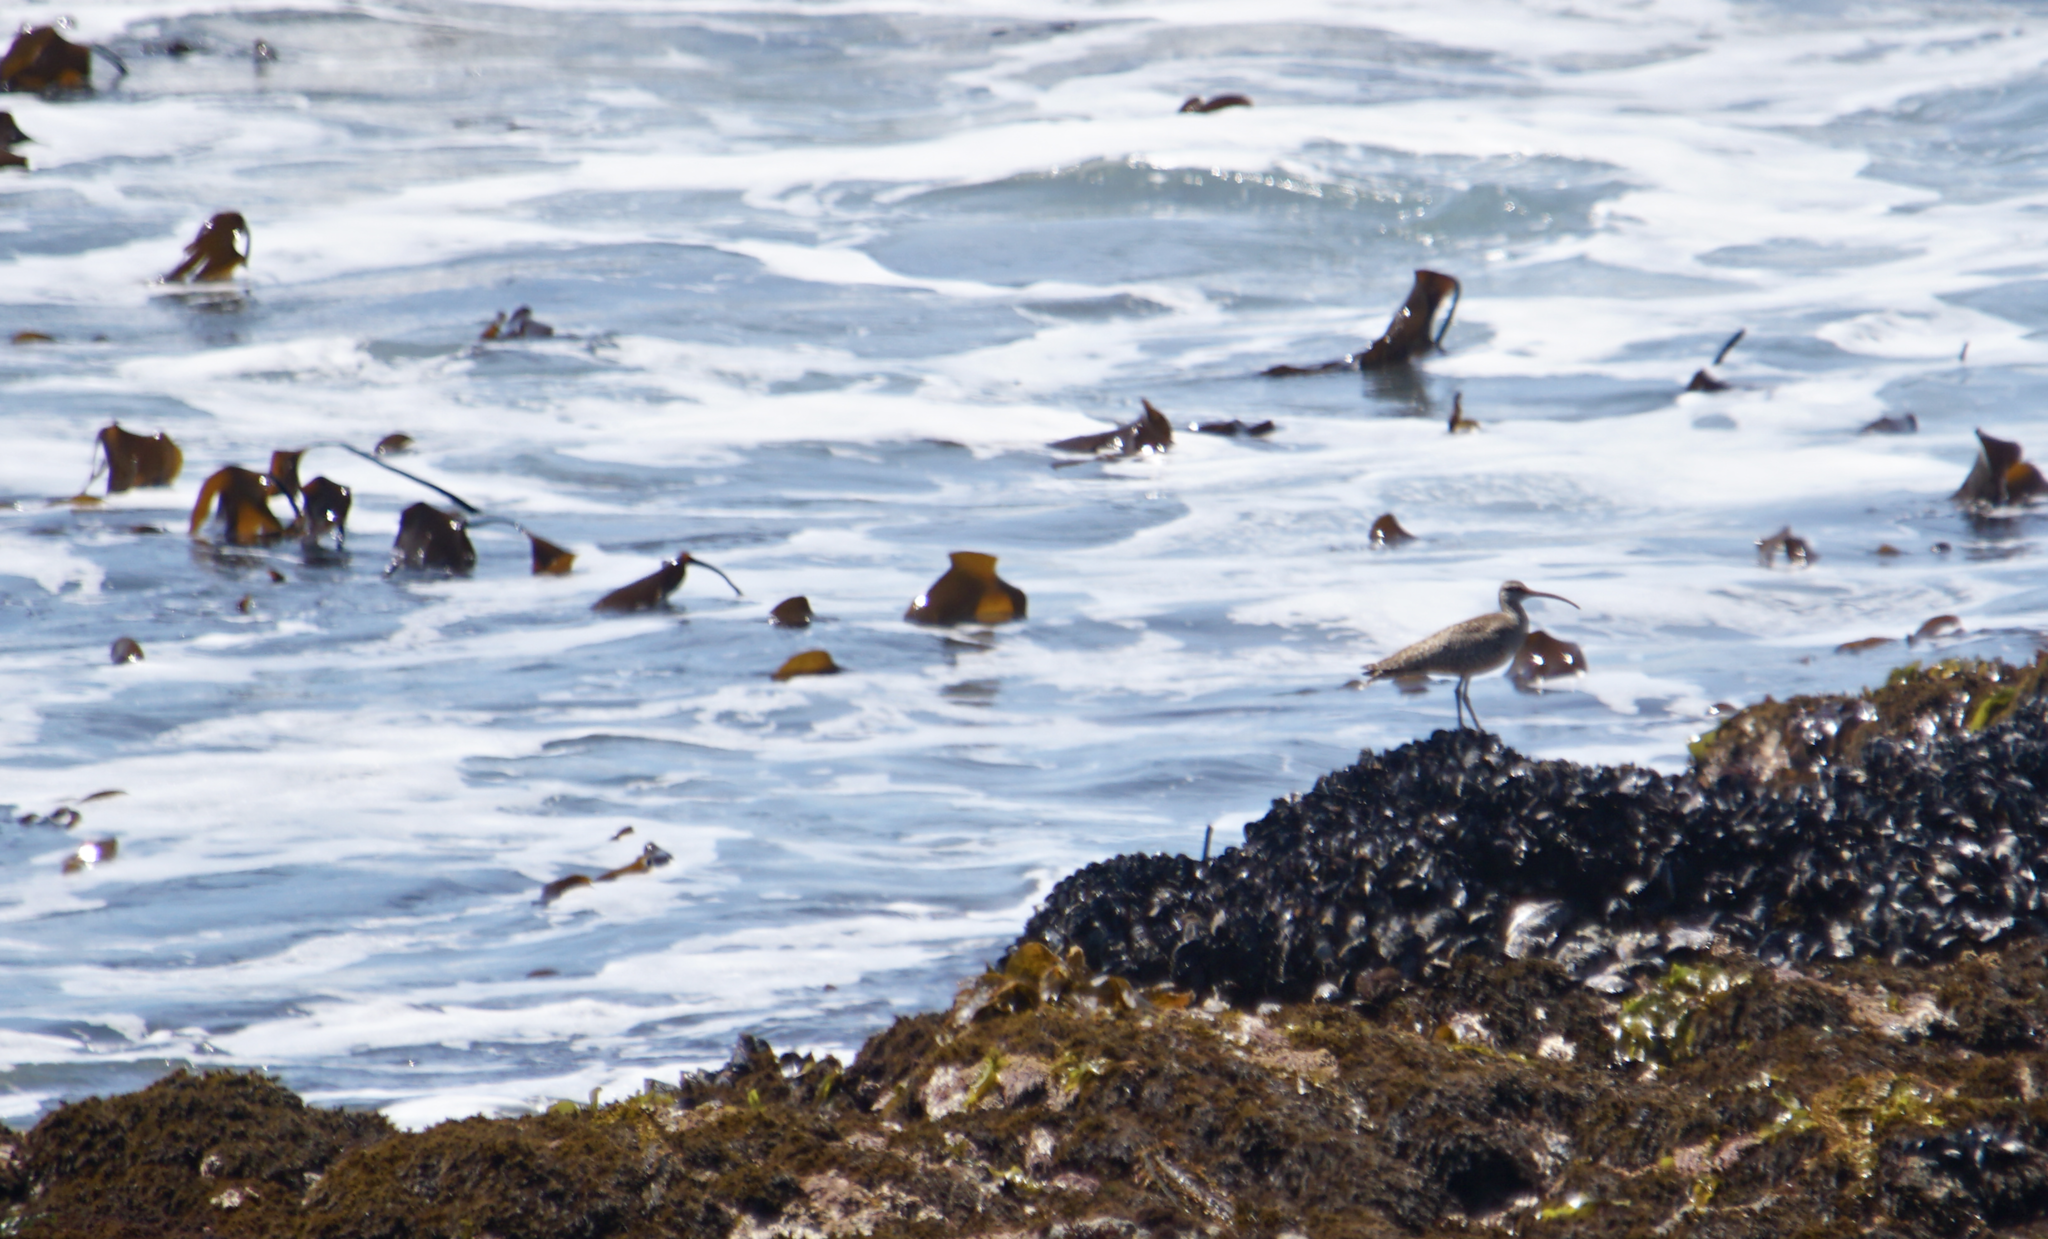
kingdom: Animalia
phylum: Chordata
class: Aves
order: Charadriiformes
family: Scolopacidae
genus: Numenius
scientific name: Numenius phaeopus
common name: Whimbrel
